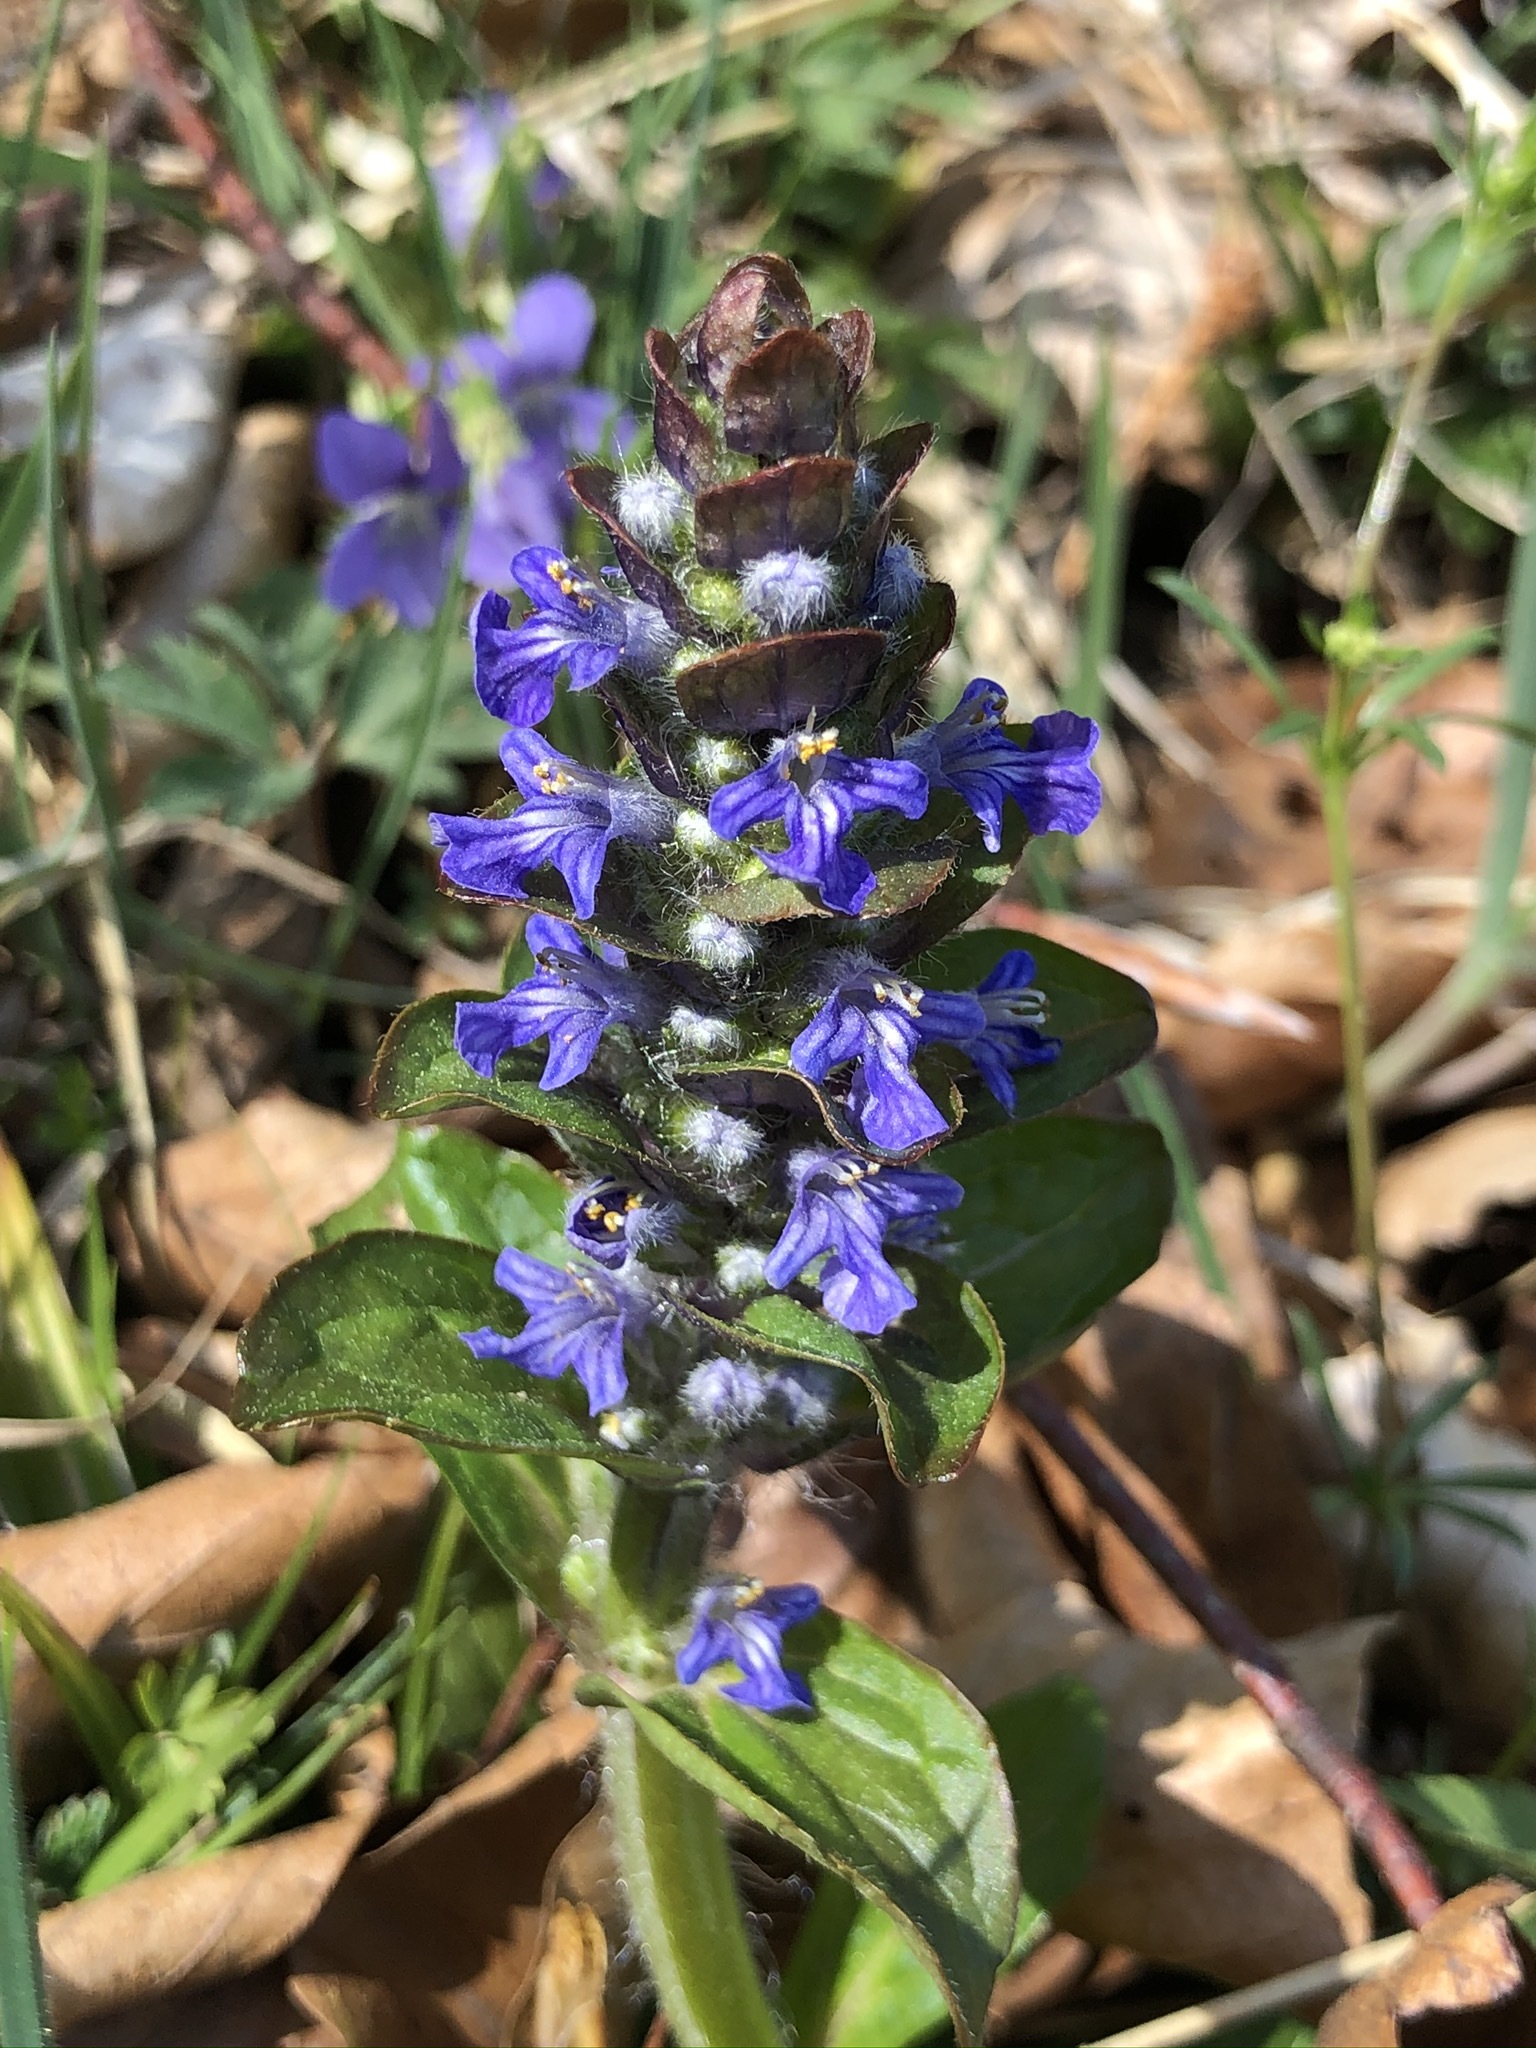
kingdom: Plantae
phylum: Tracheophyta
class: Magnoliopsida
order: Lamiales
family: Lamiaceae
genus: Ajuga
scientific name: Ajuga reptans
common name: Bugle
